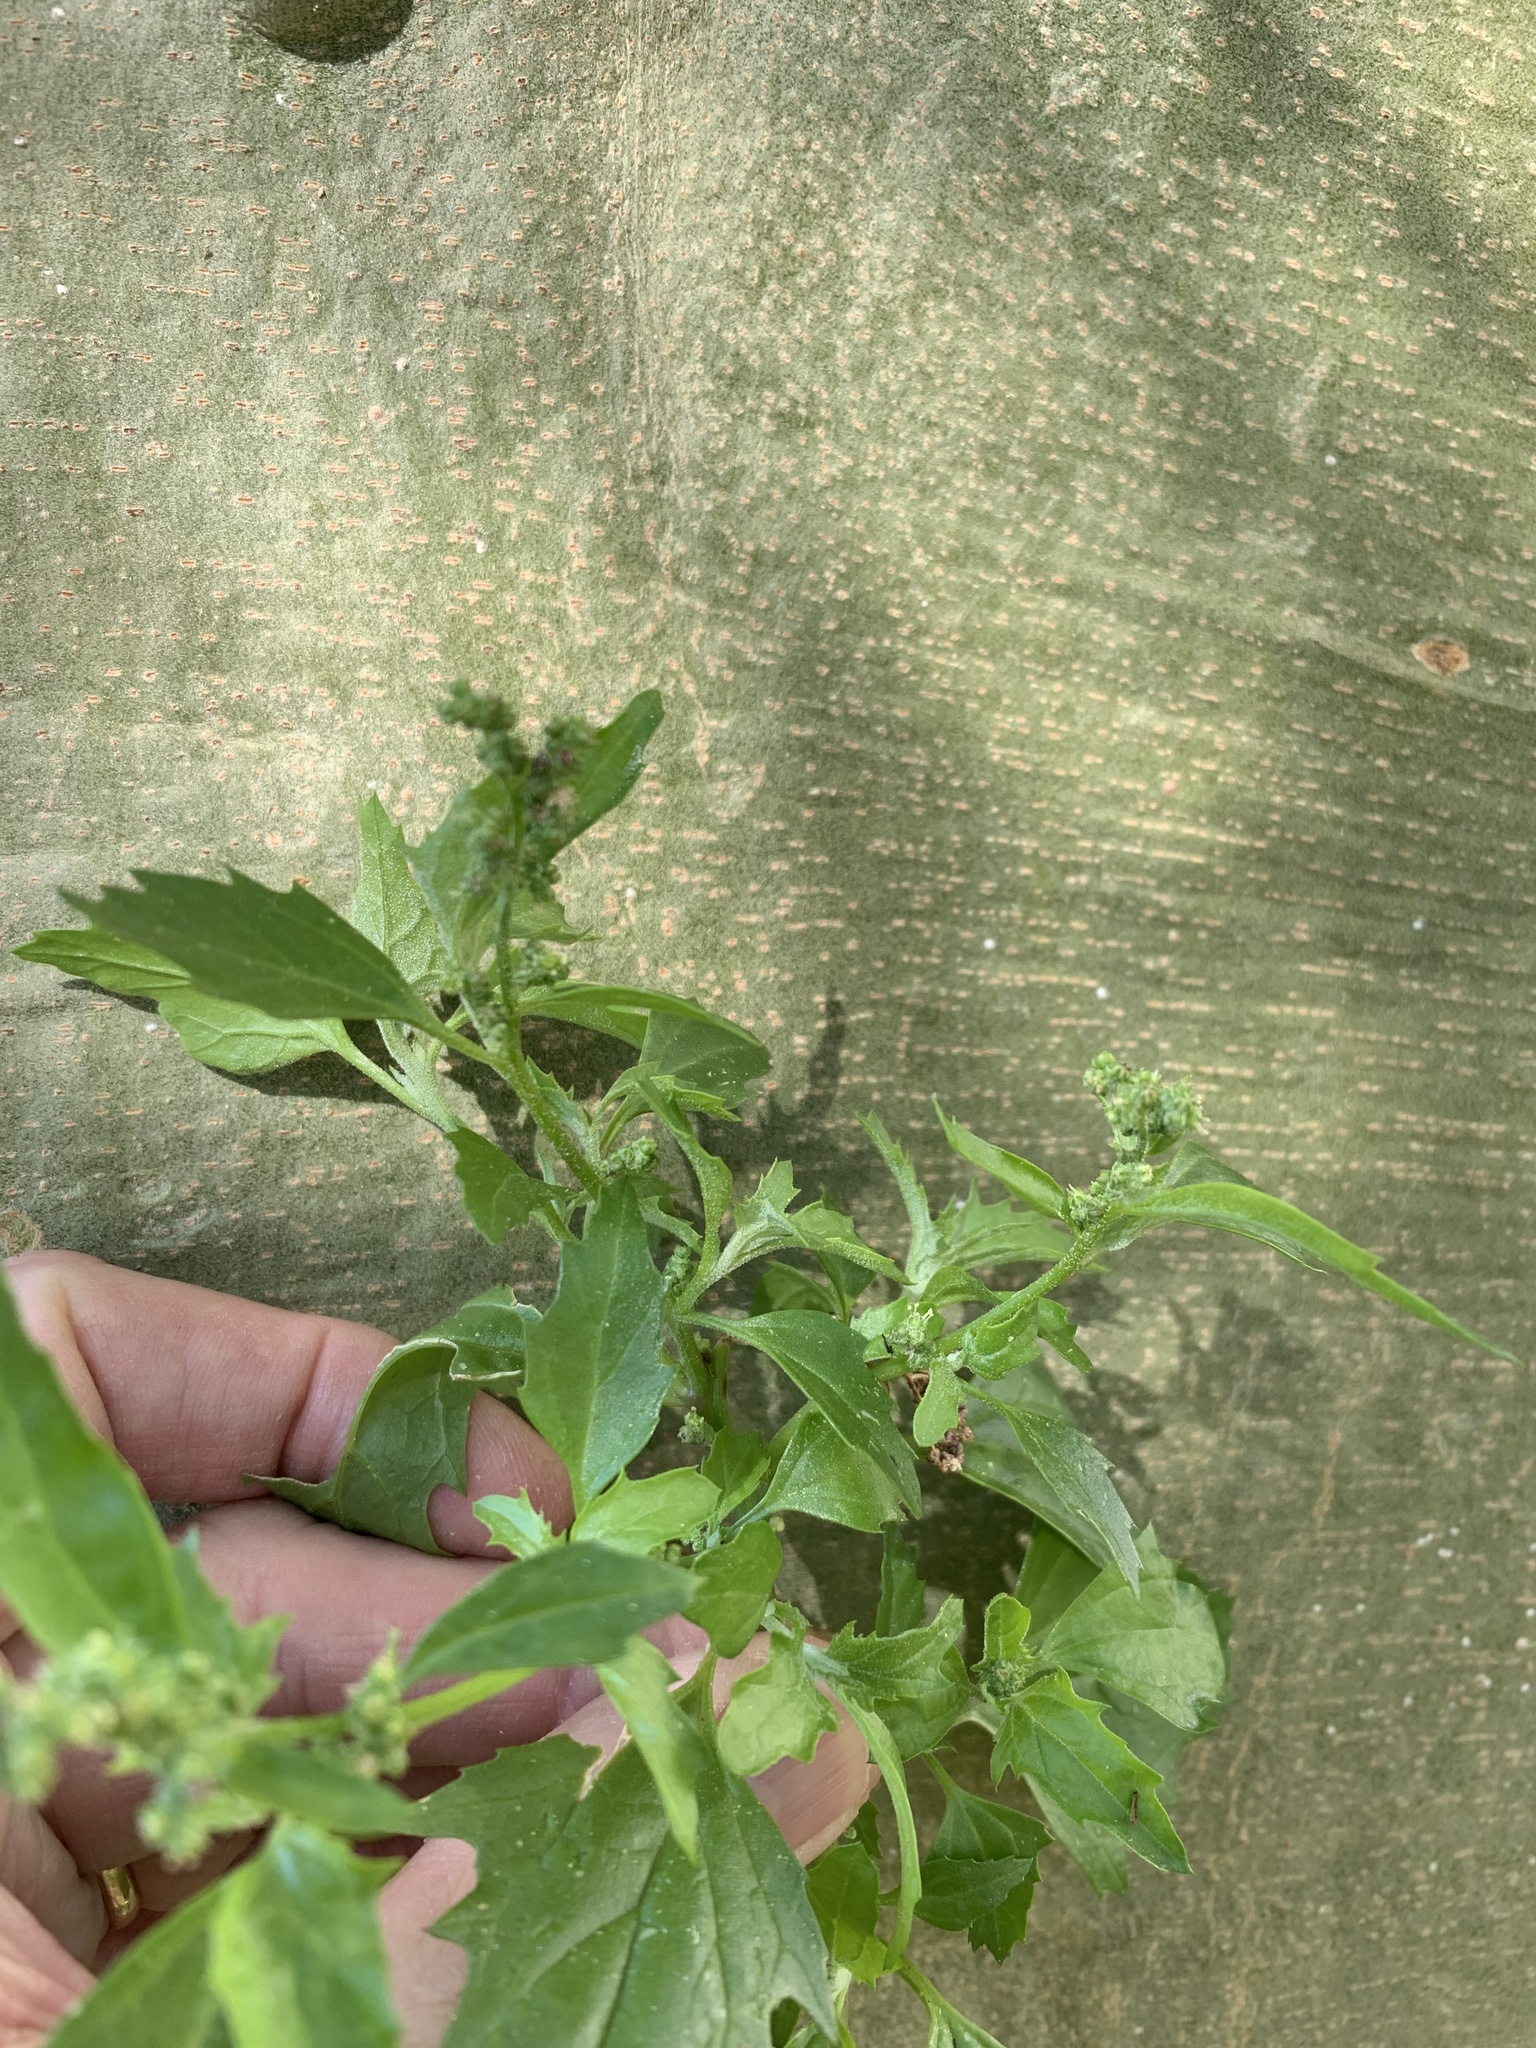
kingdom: Plantae
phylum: Tracheophyta
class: Magnoliopsida
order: Caryophyllales
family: Amaranthaceae
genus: Chenopodiastrum
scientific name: Chenopodiastrum murale
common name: Sowbane
